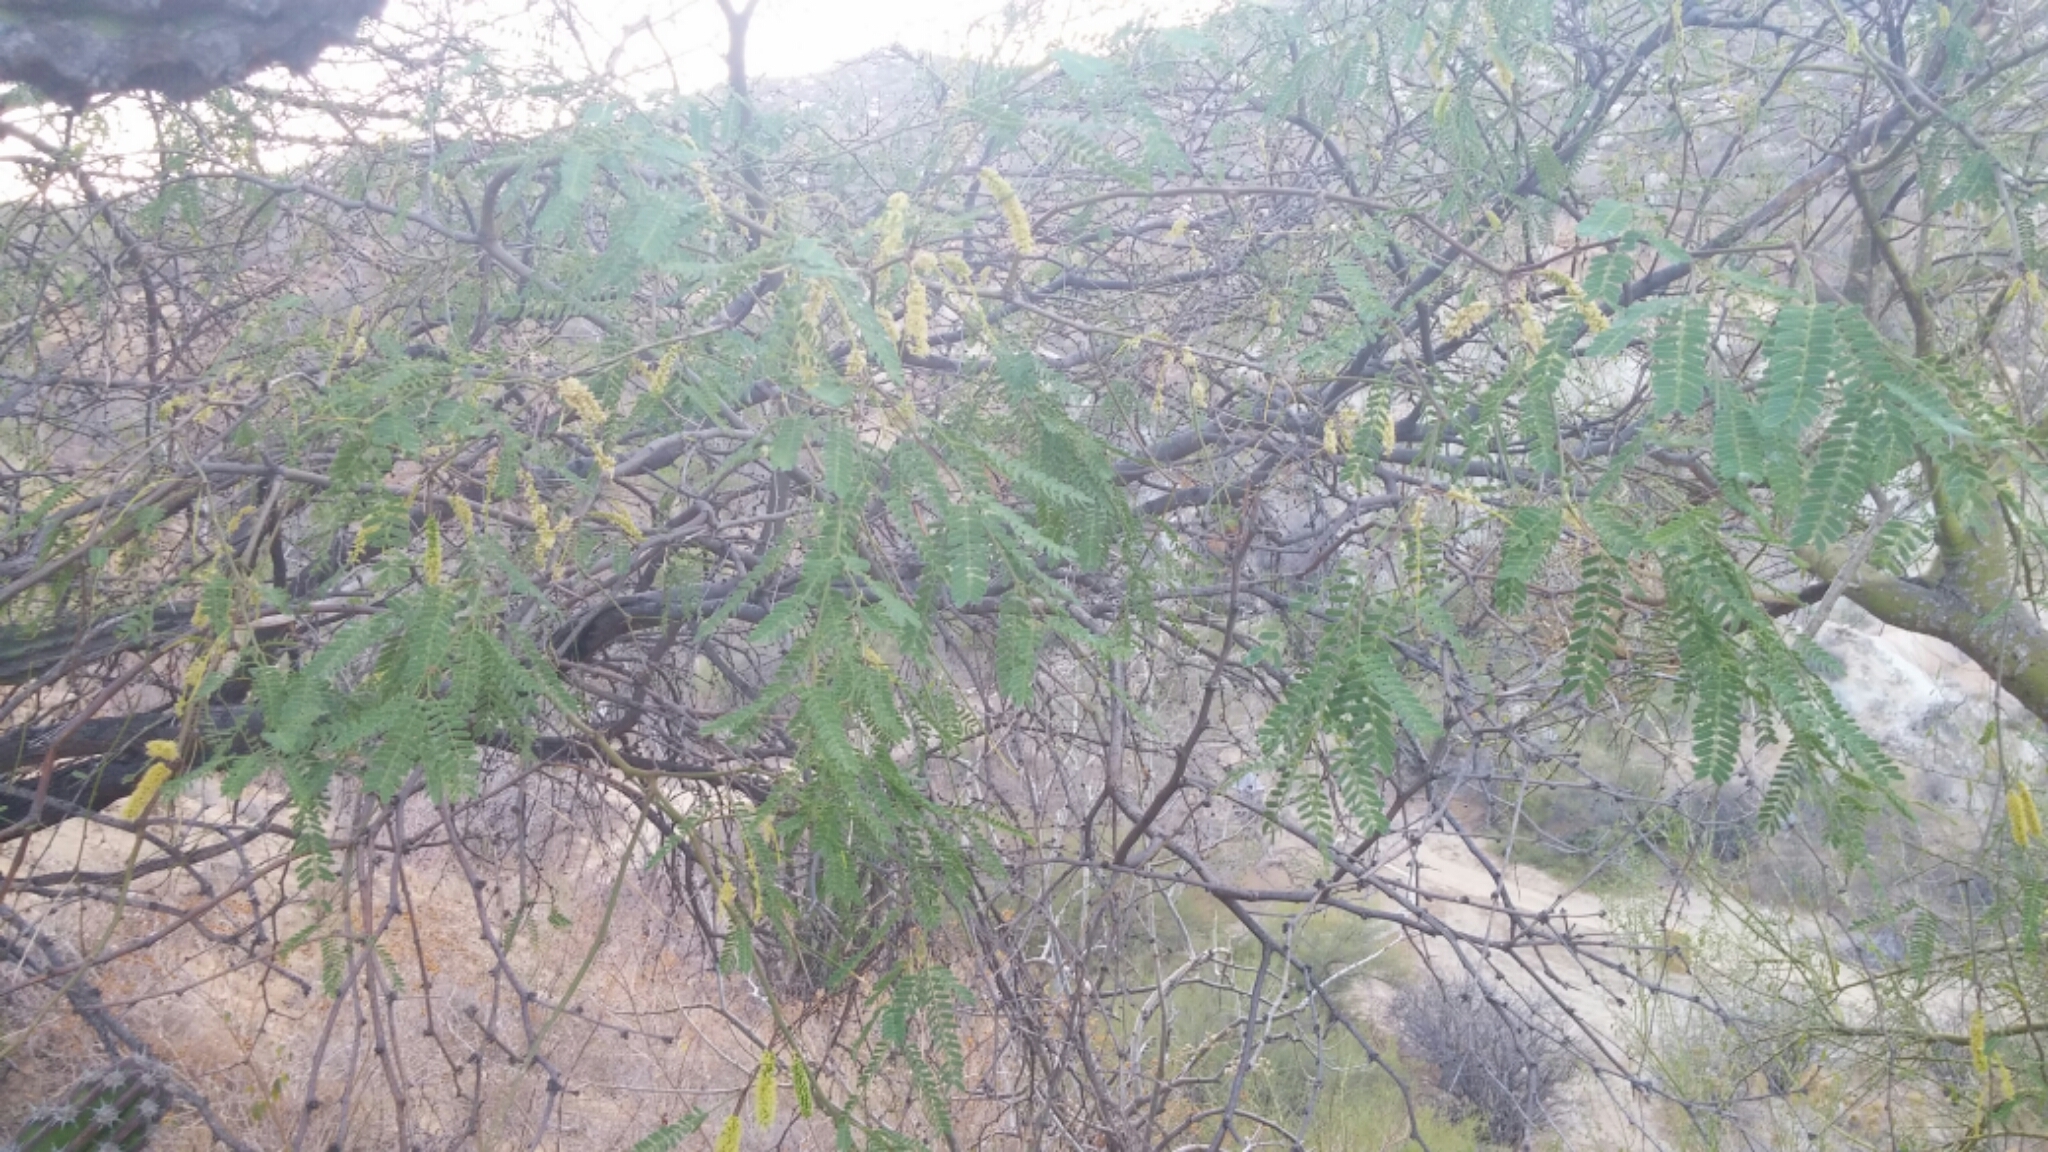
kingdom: Plantae
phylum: Tracheophyta
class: Magnoliopsida
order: Fabales
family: Fabaceae
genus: Prosopis
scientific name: Prosopis glandulosa
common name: Honey mesquite
